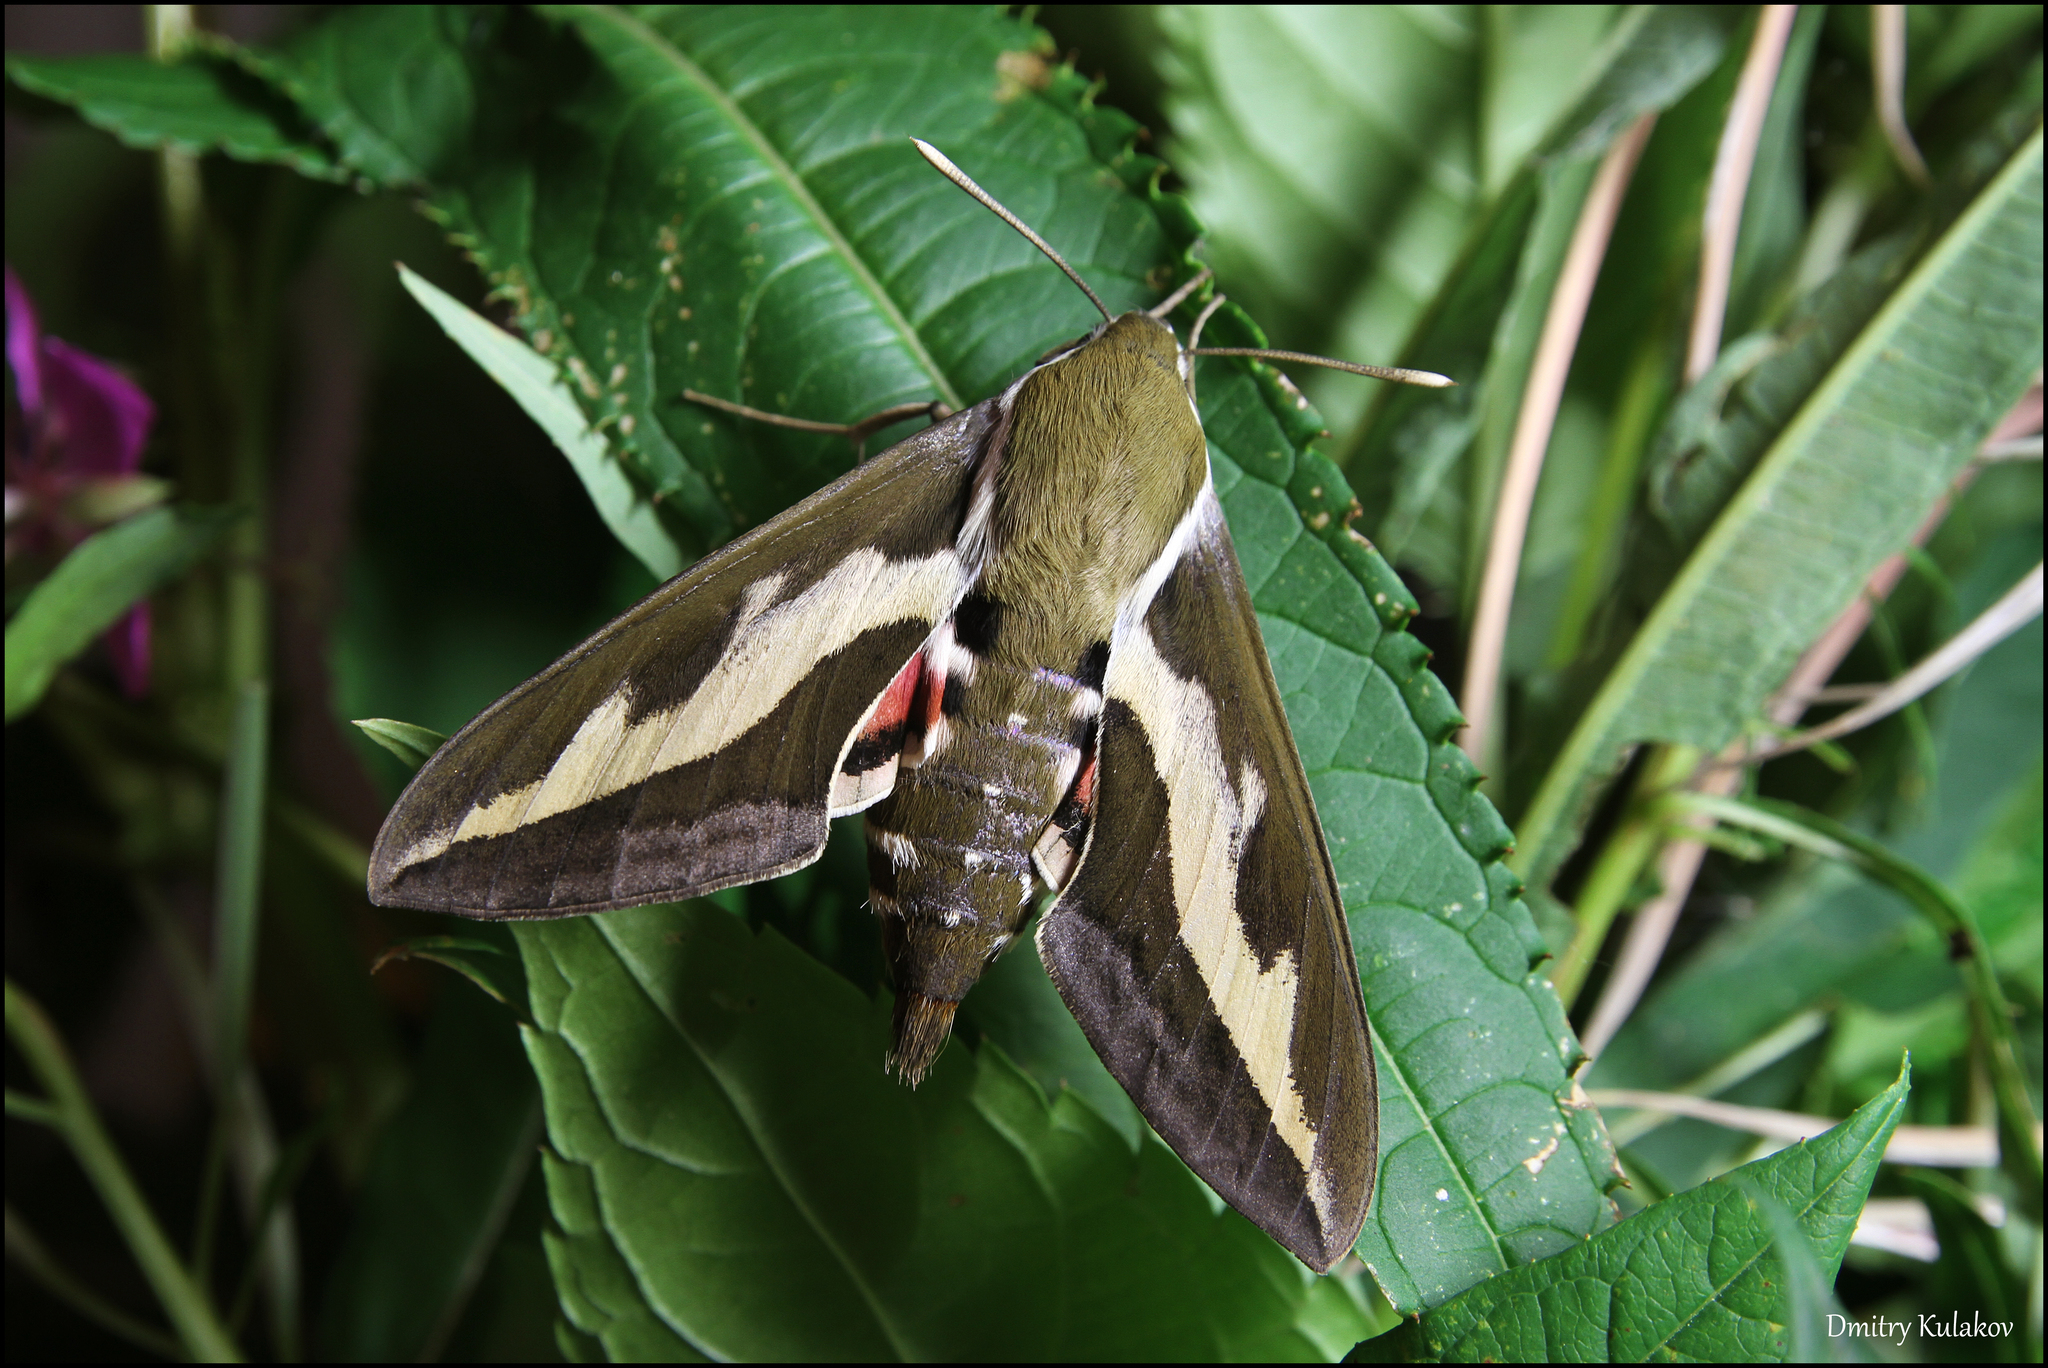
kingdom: Animalia
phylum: Arthropoda
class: Insecta
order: Lepidoptera
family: Sphingidae
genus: Hyles
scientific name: Hyles gallii
